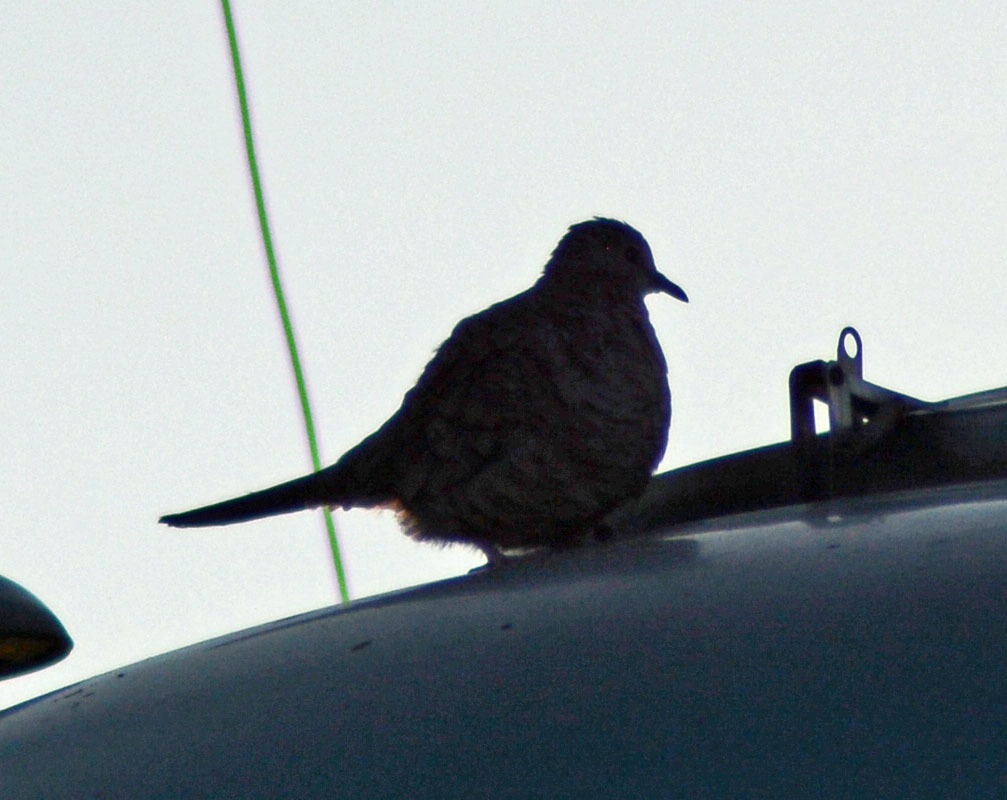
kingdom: Animalia
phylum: Chordata
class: Aves
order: Columbiformes
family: Columbidae
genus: Columbina
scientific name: Columbina inca
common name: Inca dove
